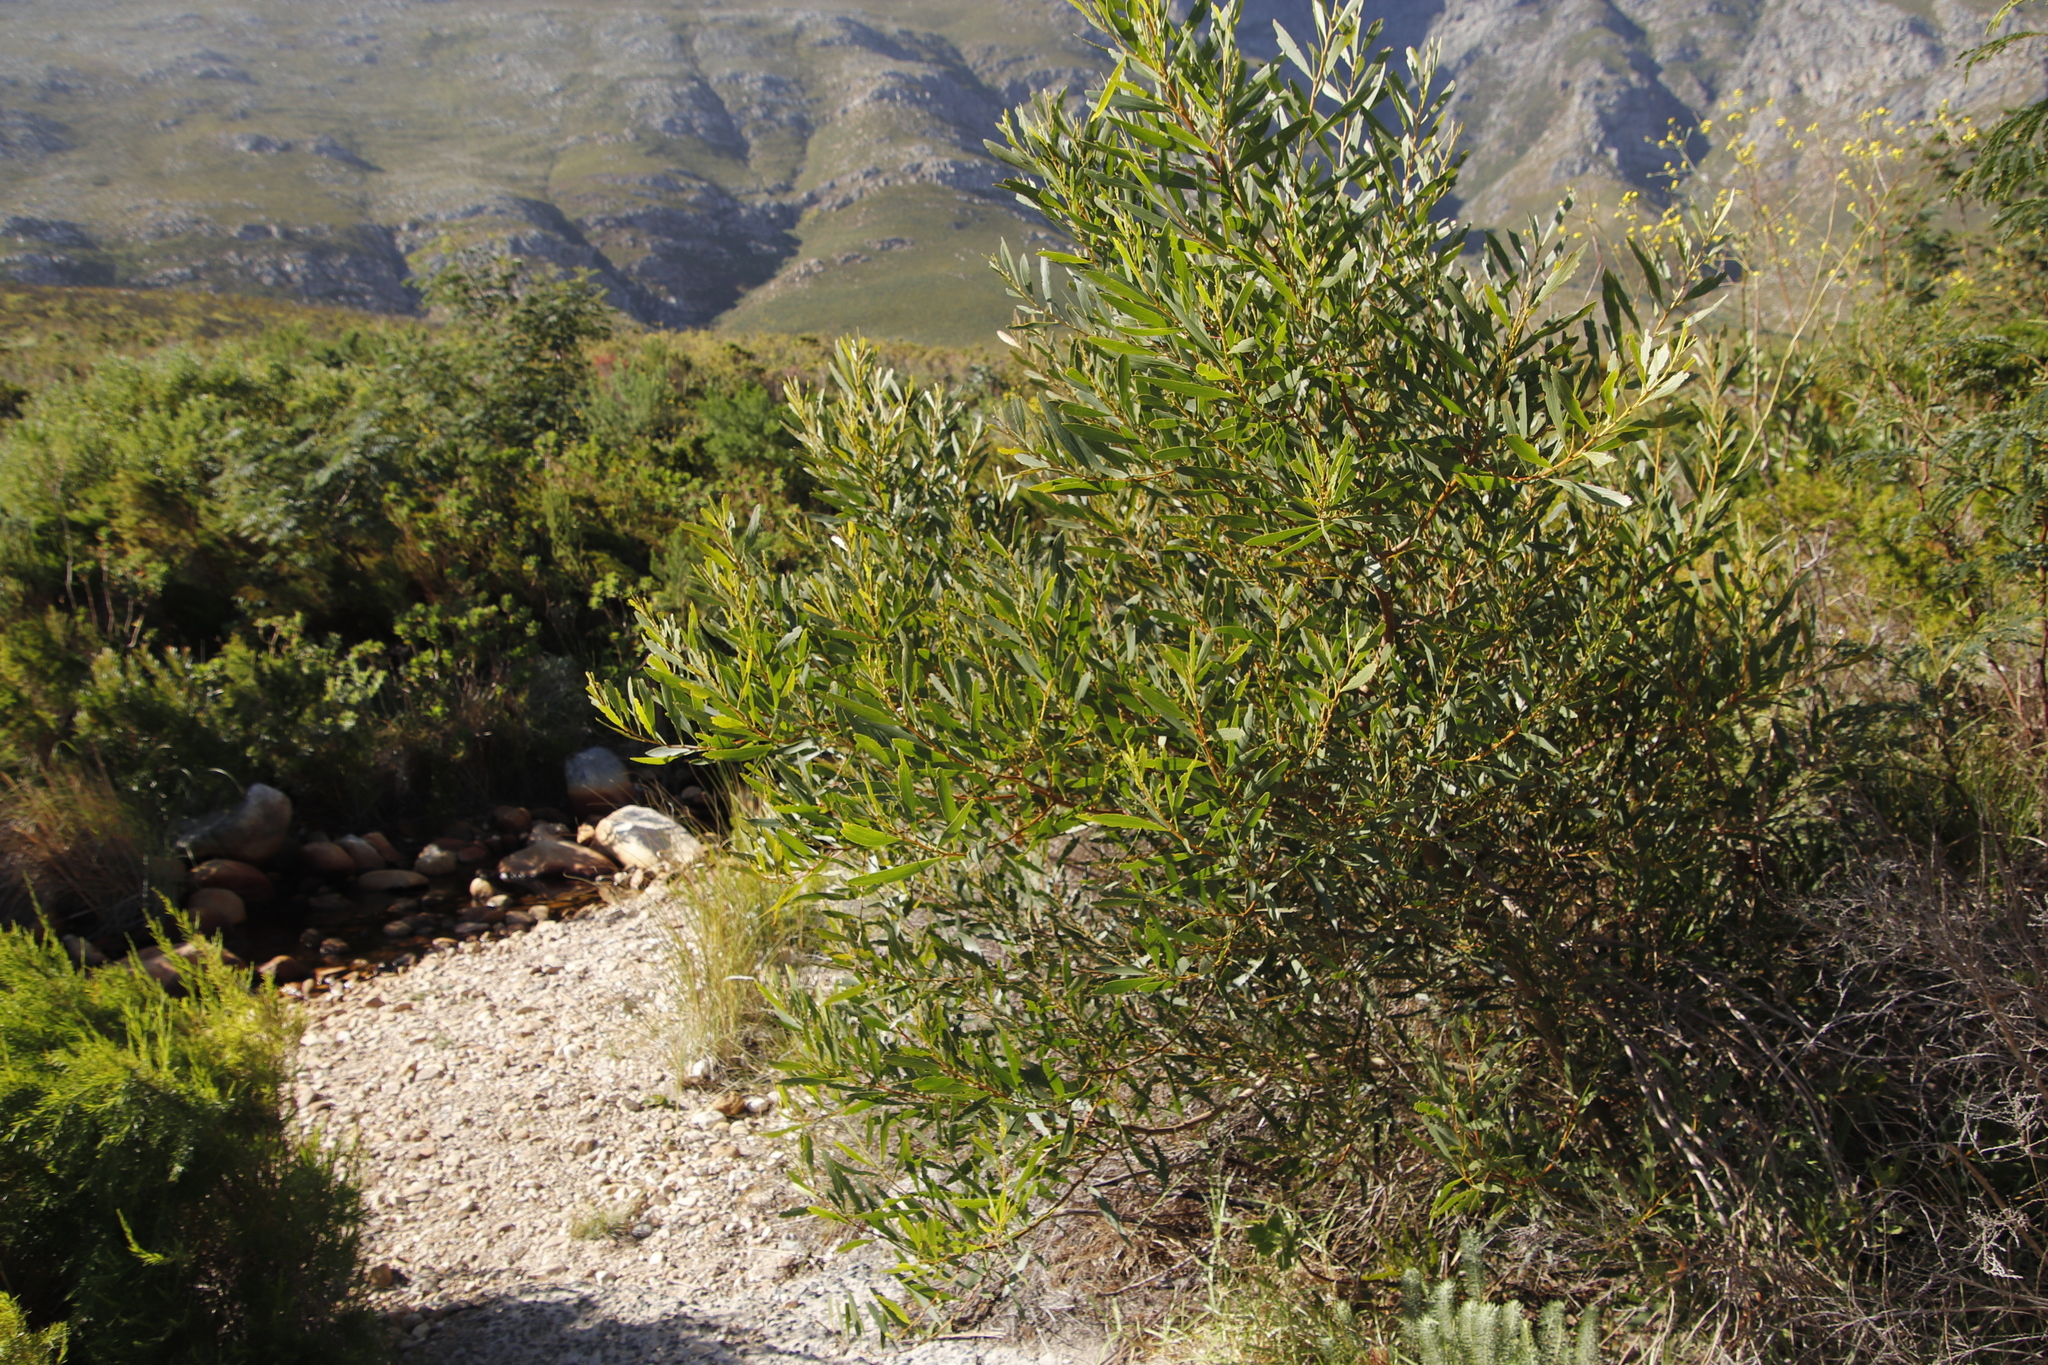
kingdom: Plantae
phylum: Tracheophyta
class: Magnoliopsida
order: Fabales
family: Fabaceae
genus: Acacia
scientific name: Acacia longifolia
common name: Sydney golden wattle
